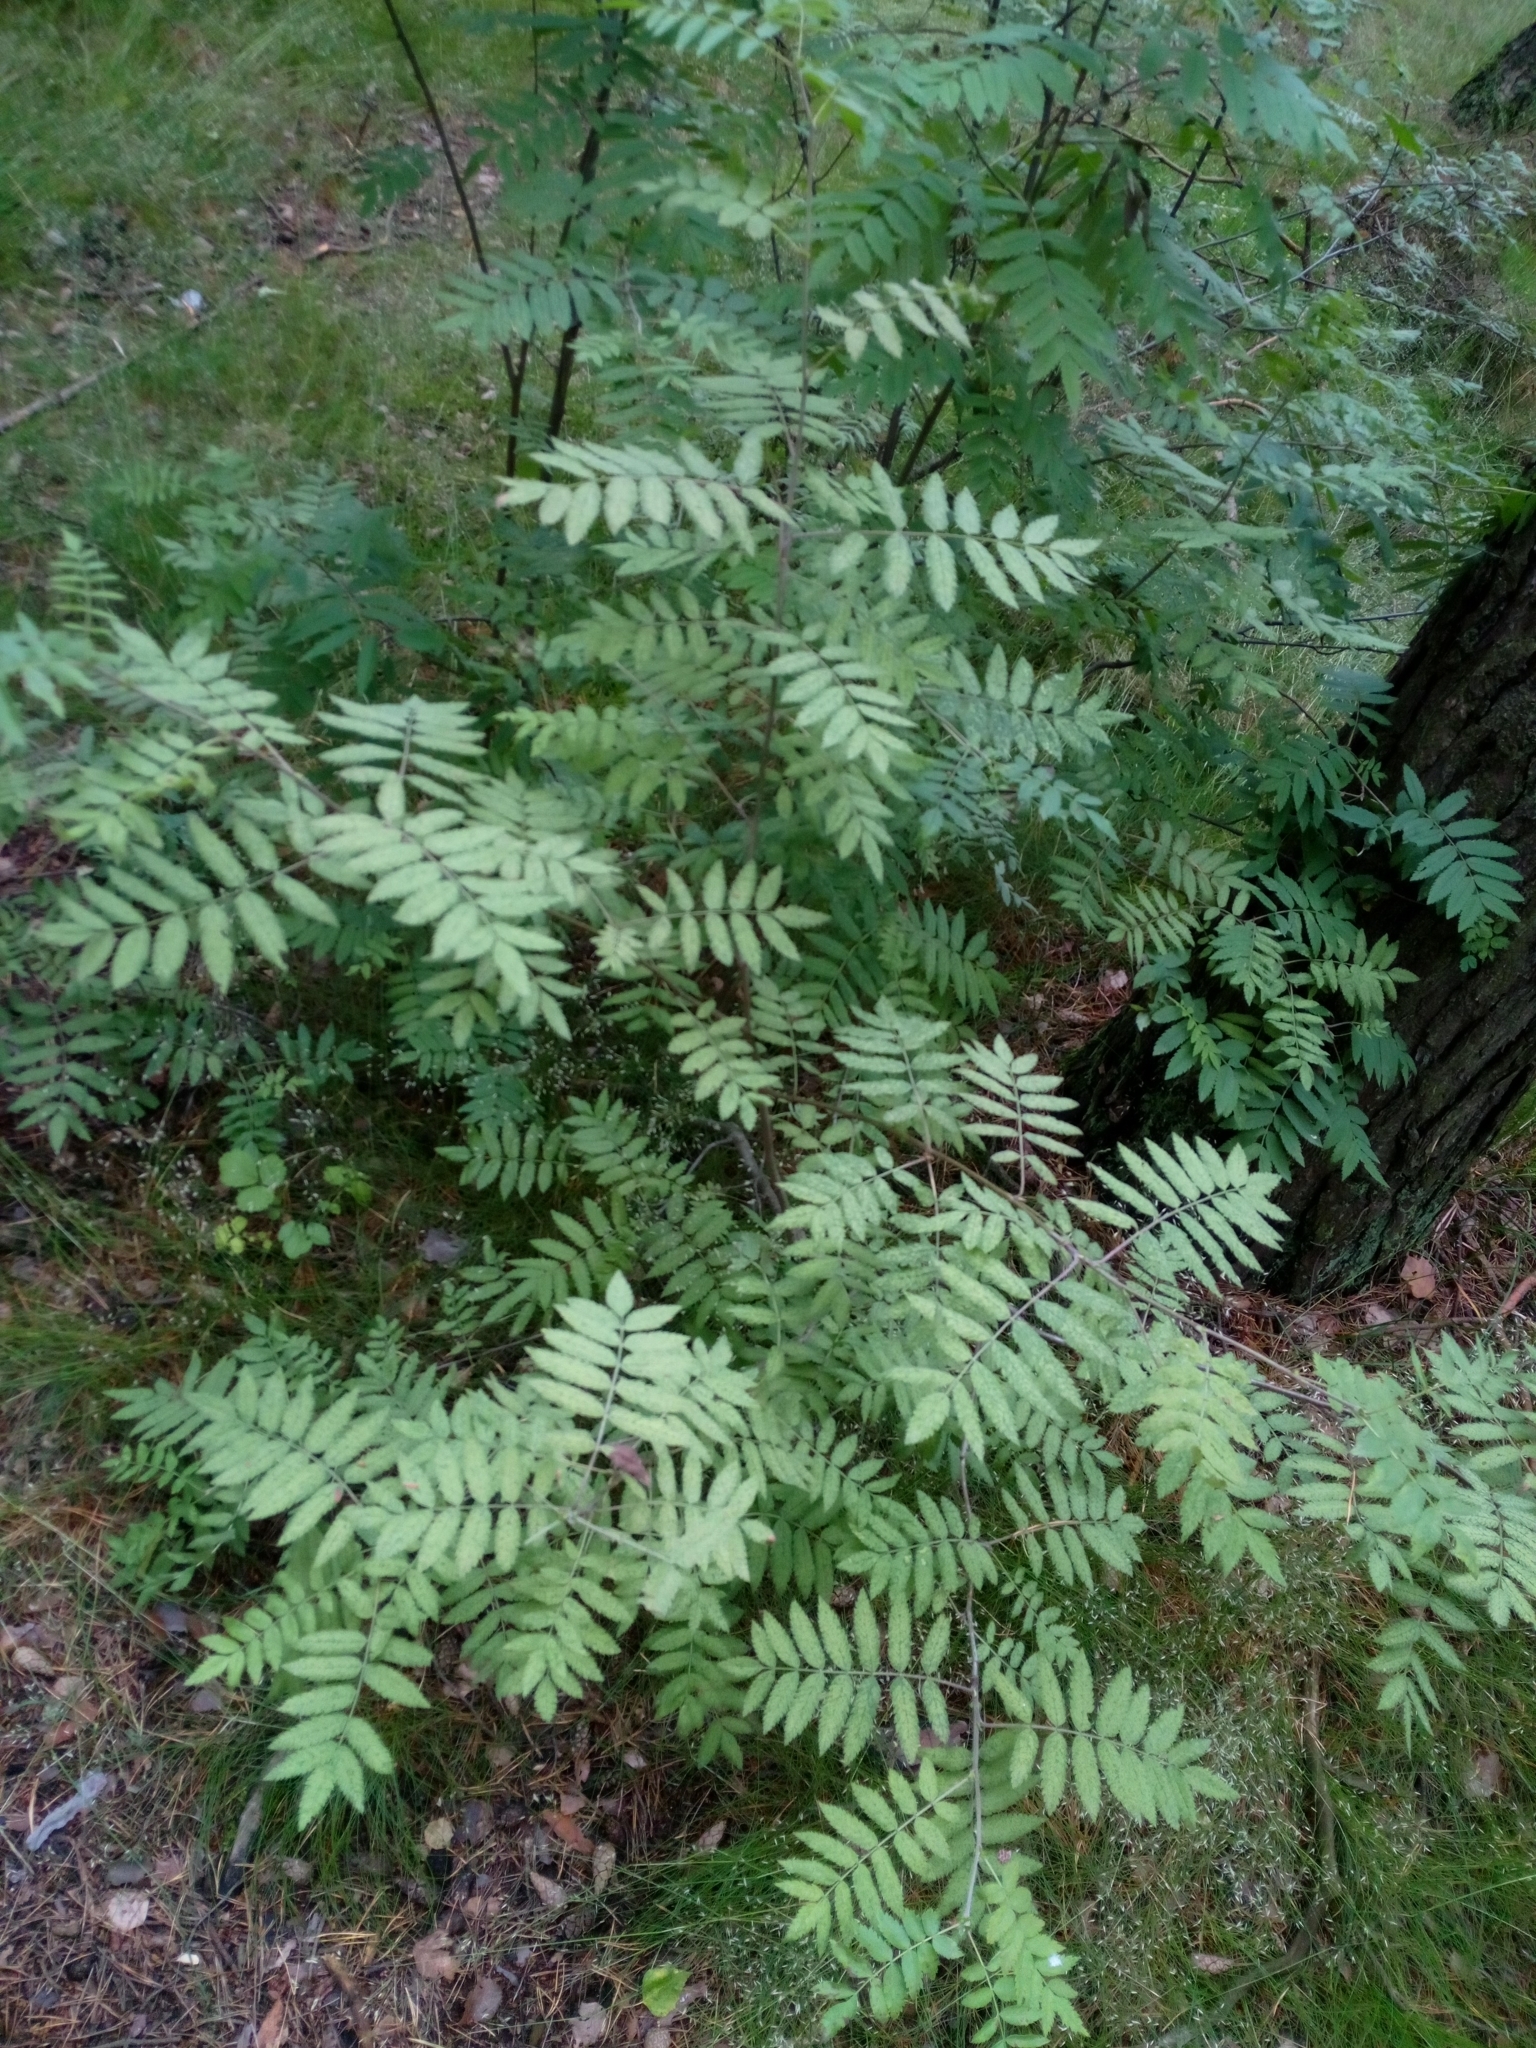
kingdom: Plantae
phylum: Tracheophyta
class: Magnoliopsida
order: Rosales
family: Rosaceae
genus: Sorbus
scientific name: Sorbus aucuparia
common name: Rowan
